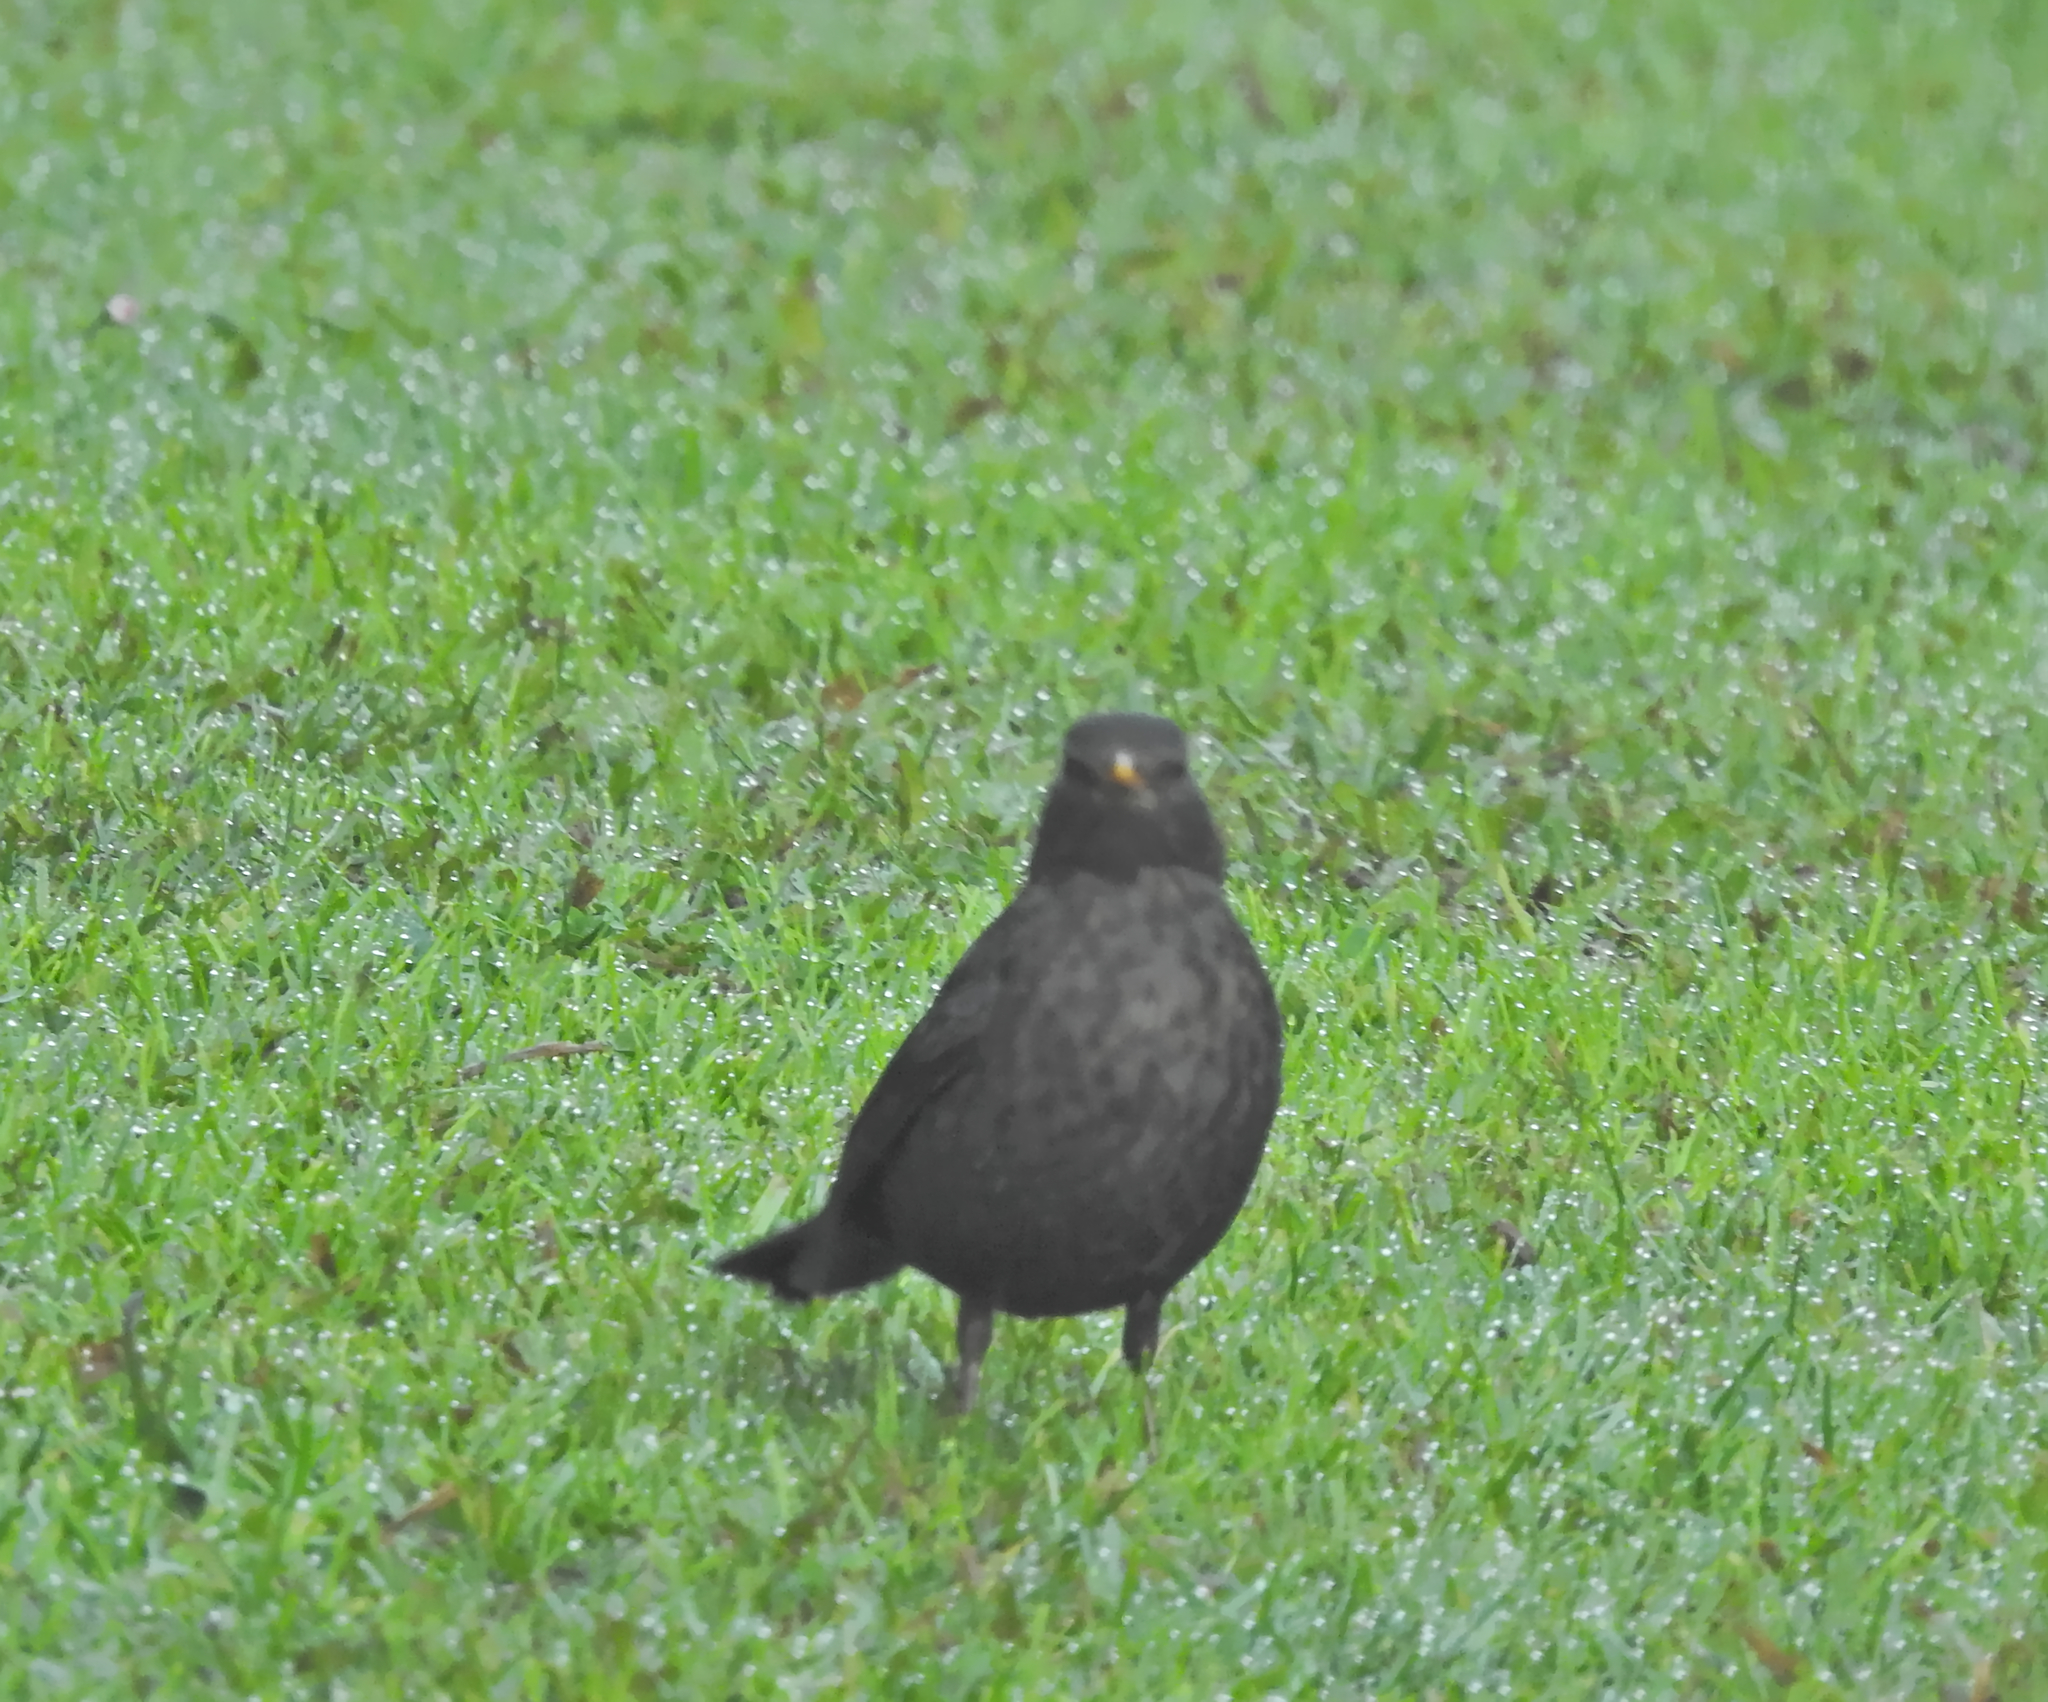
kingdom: Animalia
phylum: Chordata
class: Aves
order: Passeriformes
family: Turdidae
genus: Turdus
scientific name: Turdus merula
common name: Common blackbird
